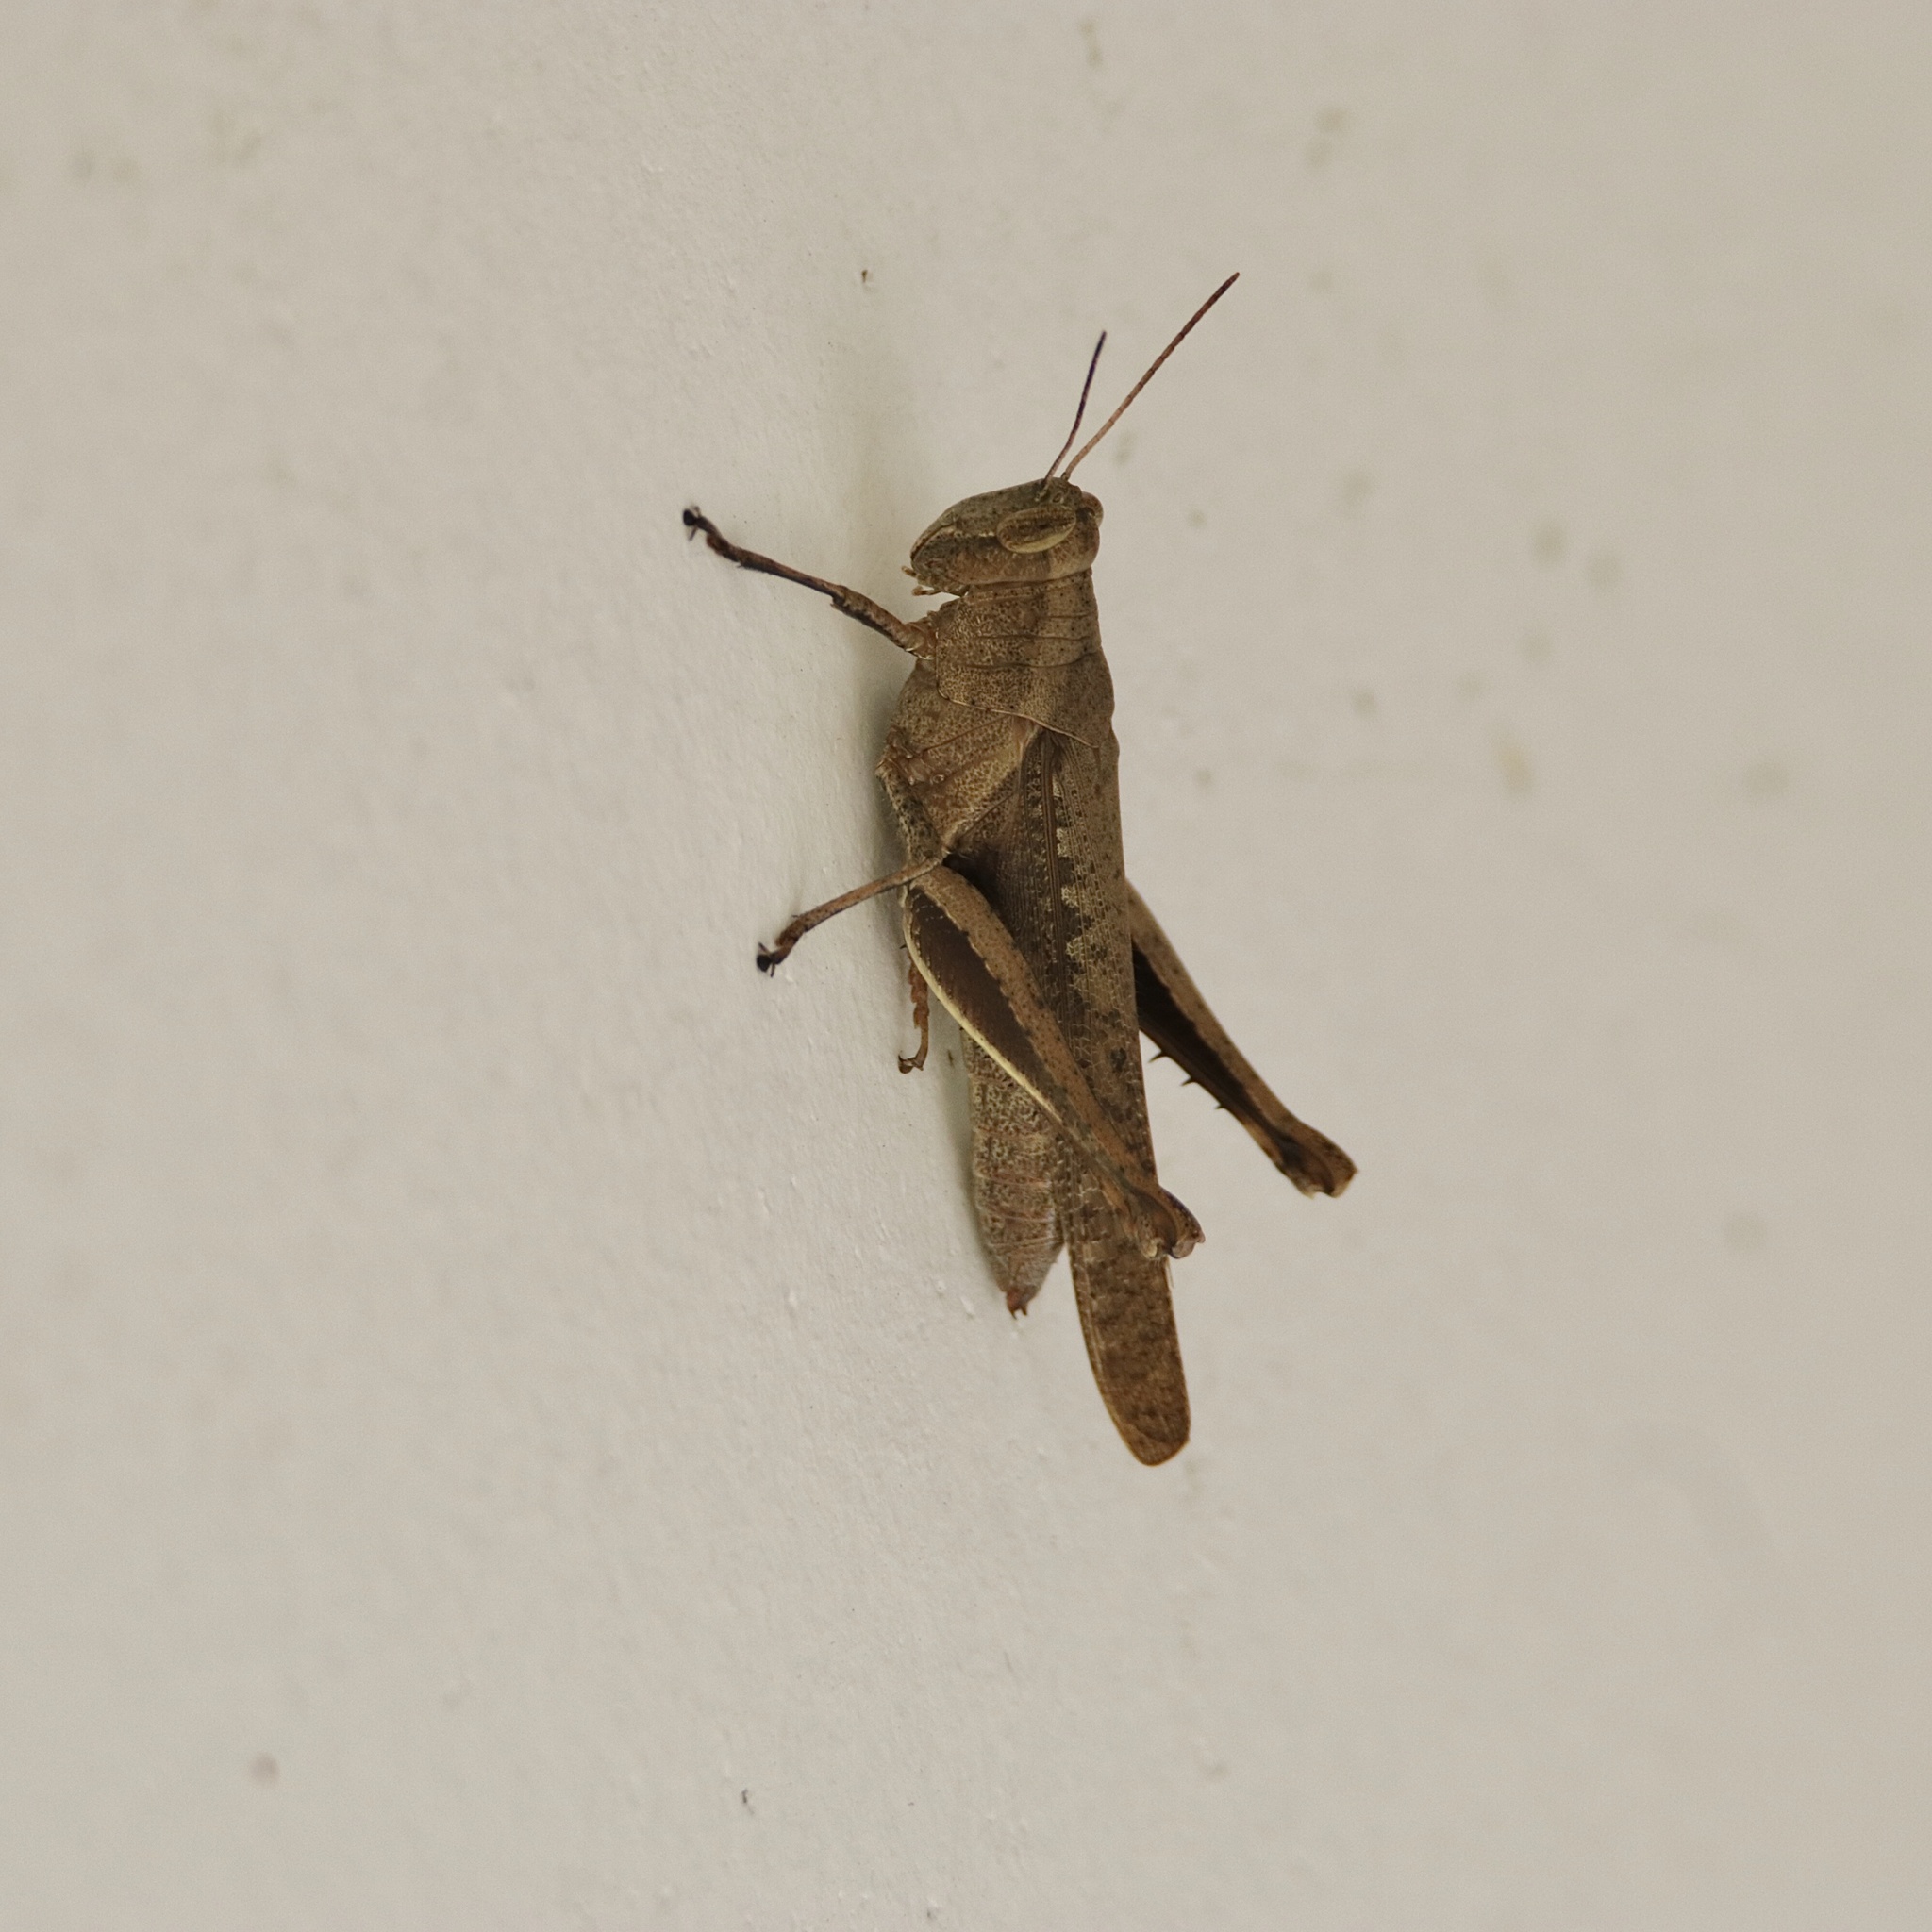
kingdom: Animalia
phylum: Arthropoda
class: Insecta
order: Orthoptera
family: Acrididae
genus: Abracris
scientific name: Abracris flavolineata
